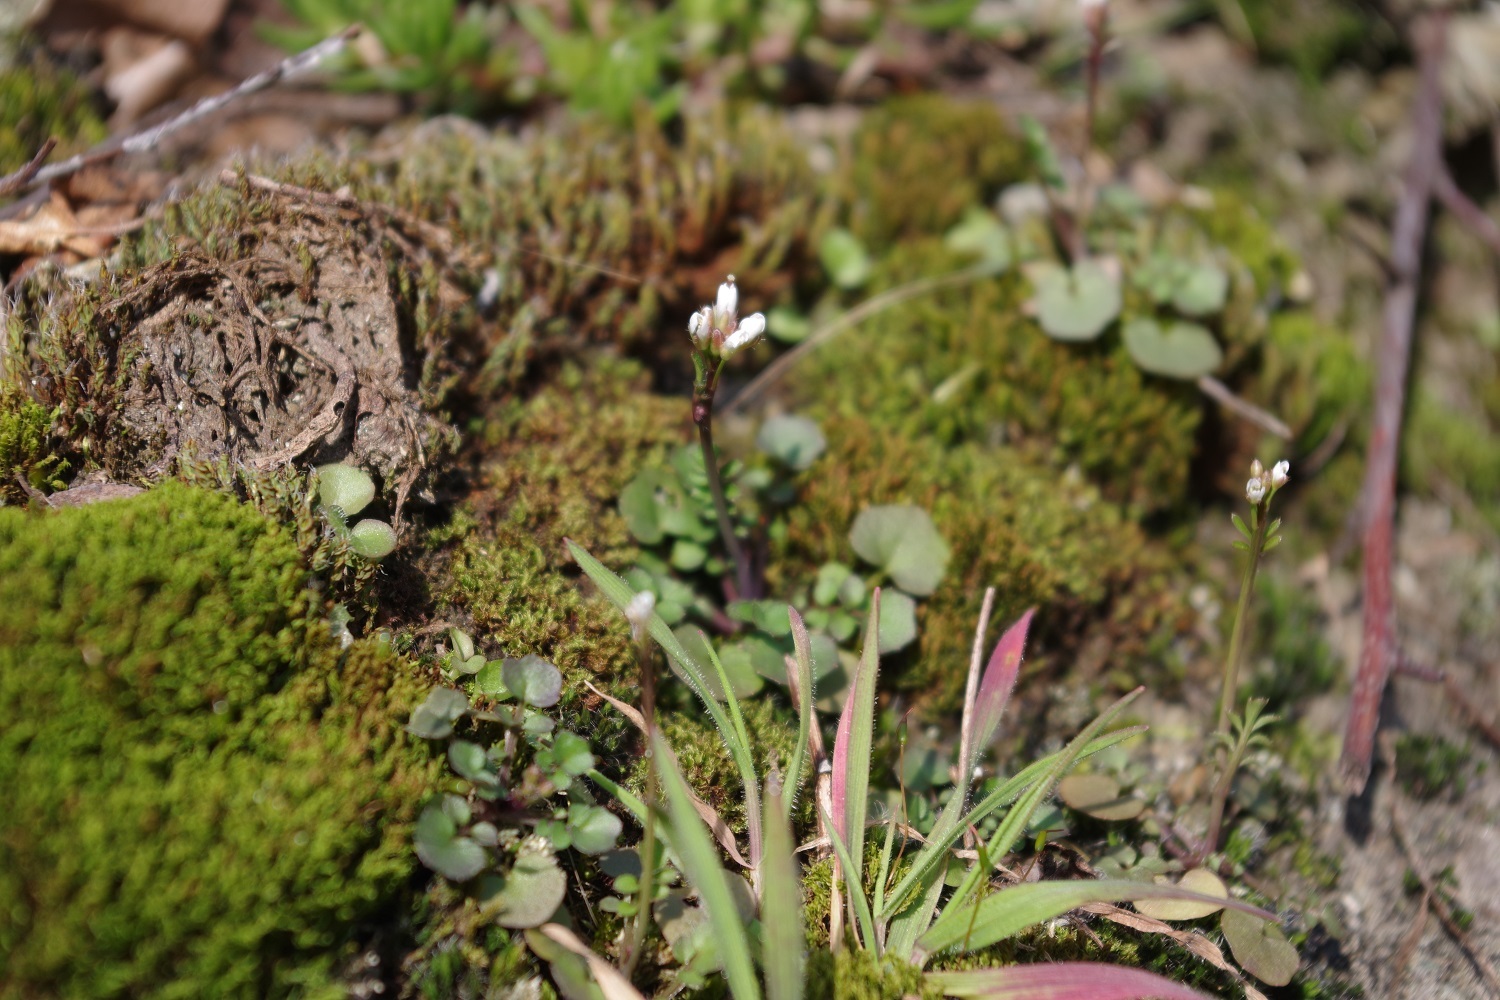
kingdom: Plantae
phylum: Tracheophyta
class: Magnoliopsida
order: Brassicales
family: Brassicaceae
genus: Cardamine
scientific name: Cardamine hirsuta
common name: Hairy bittercress
